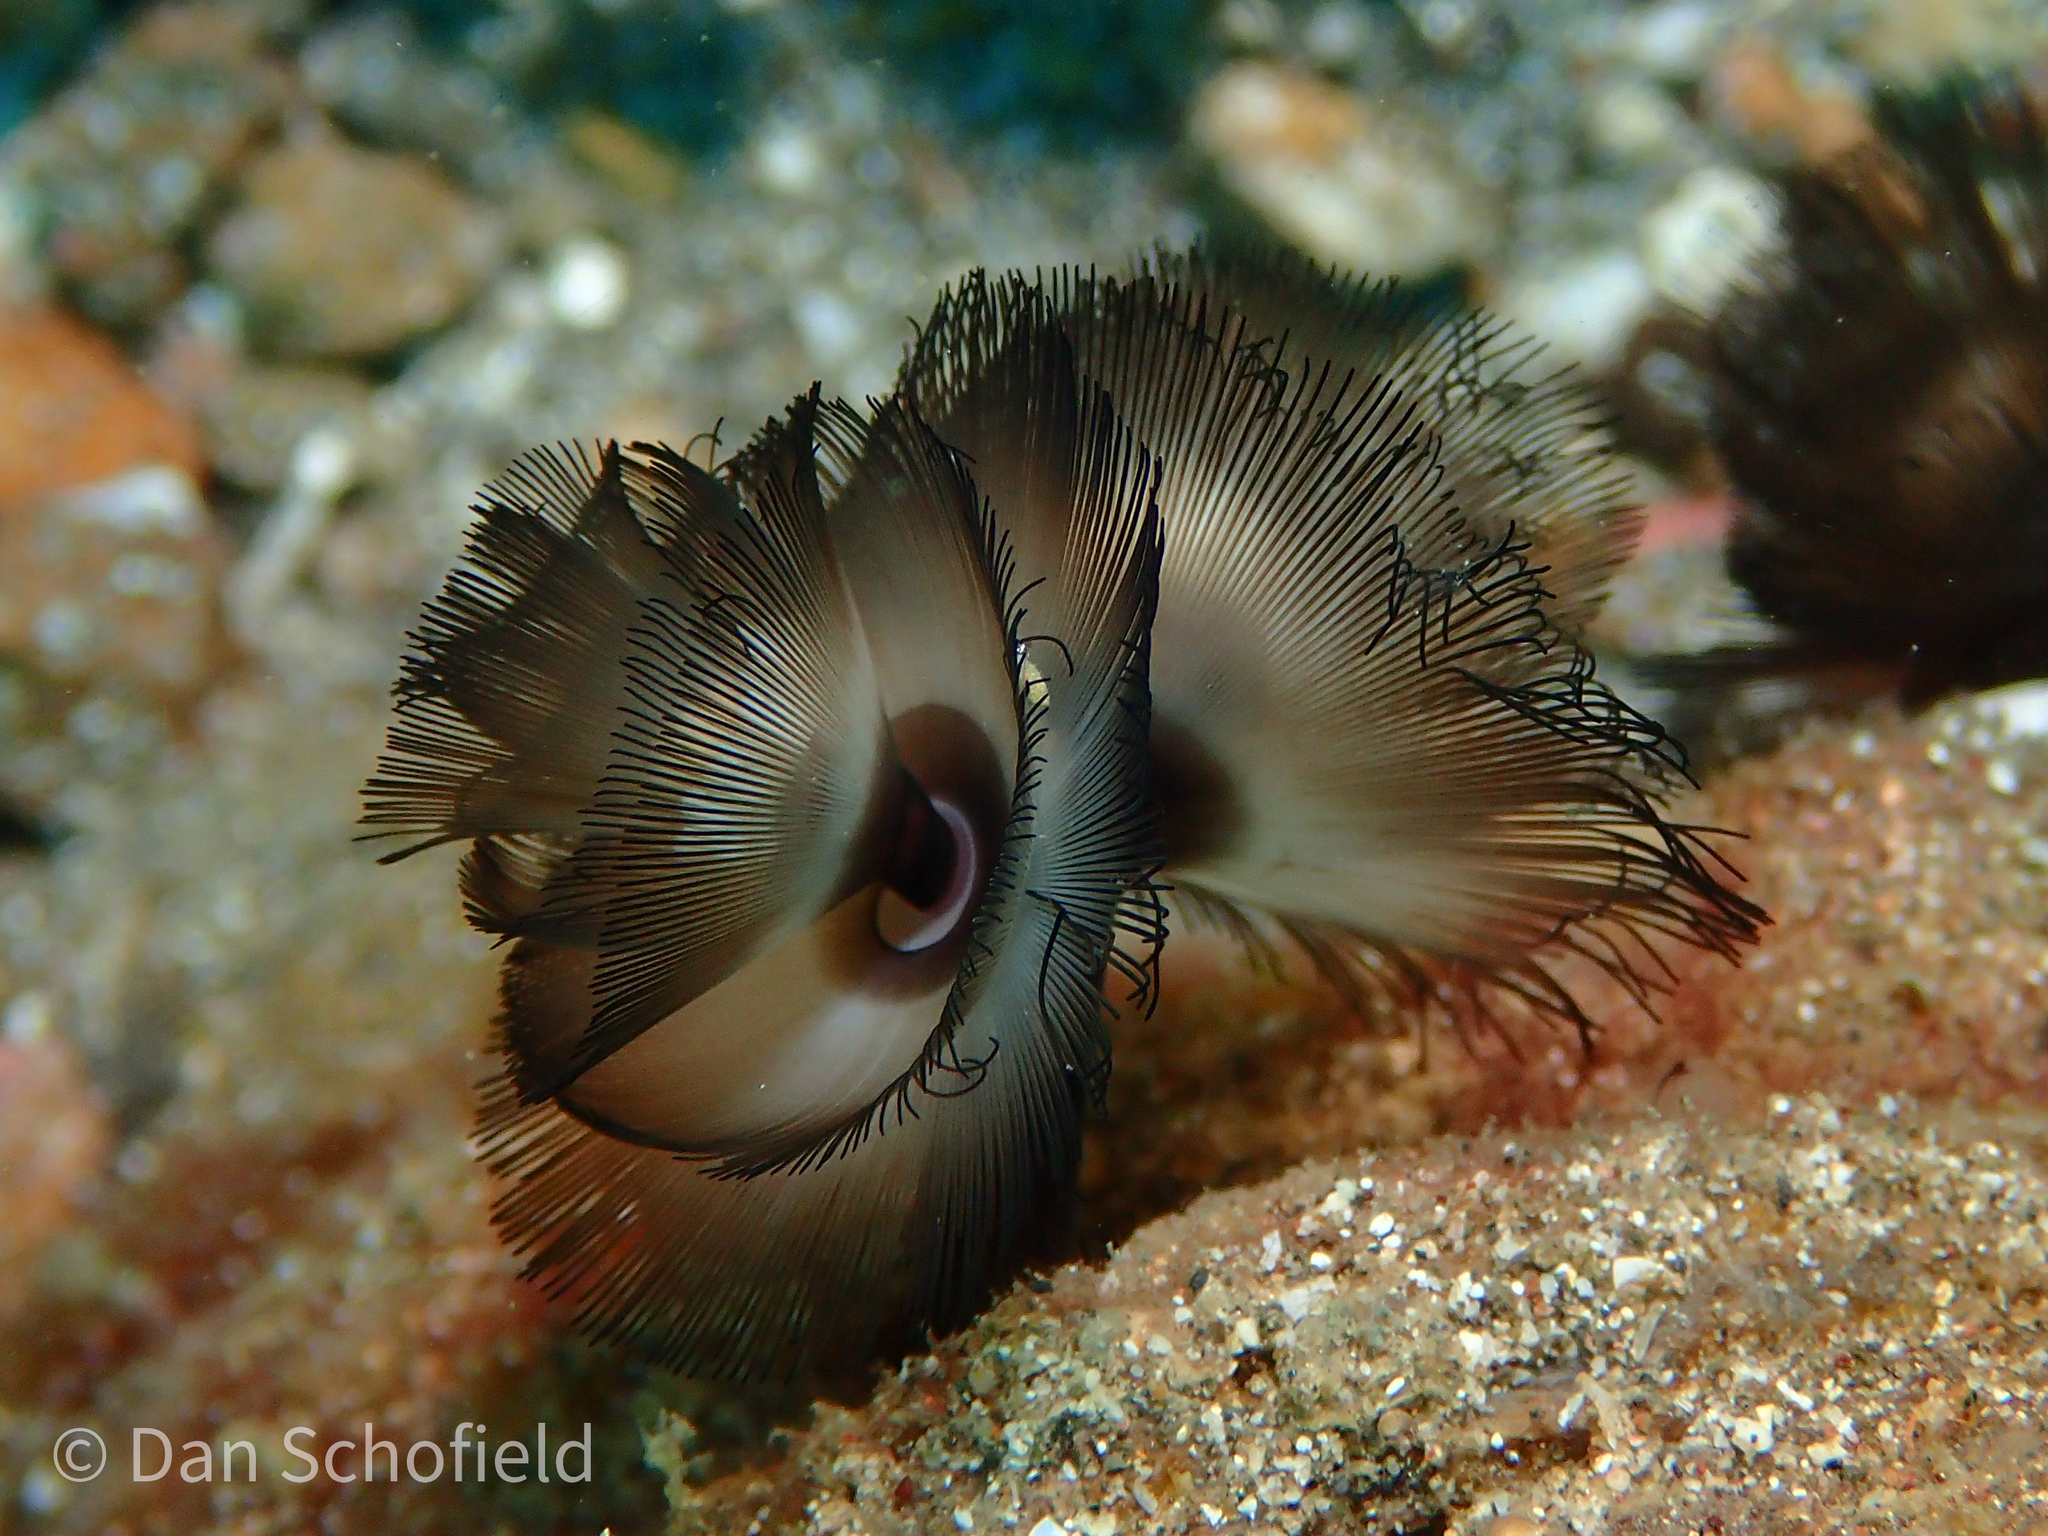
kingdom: Animalia
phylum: Phoronida
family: Phoronidae
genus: Phoronis
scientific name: Phoronis australis
